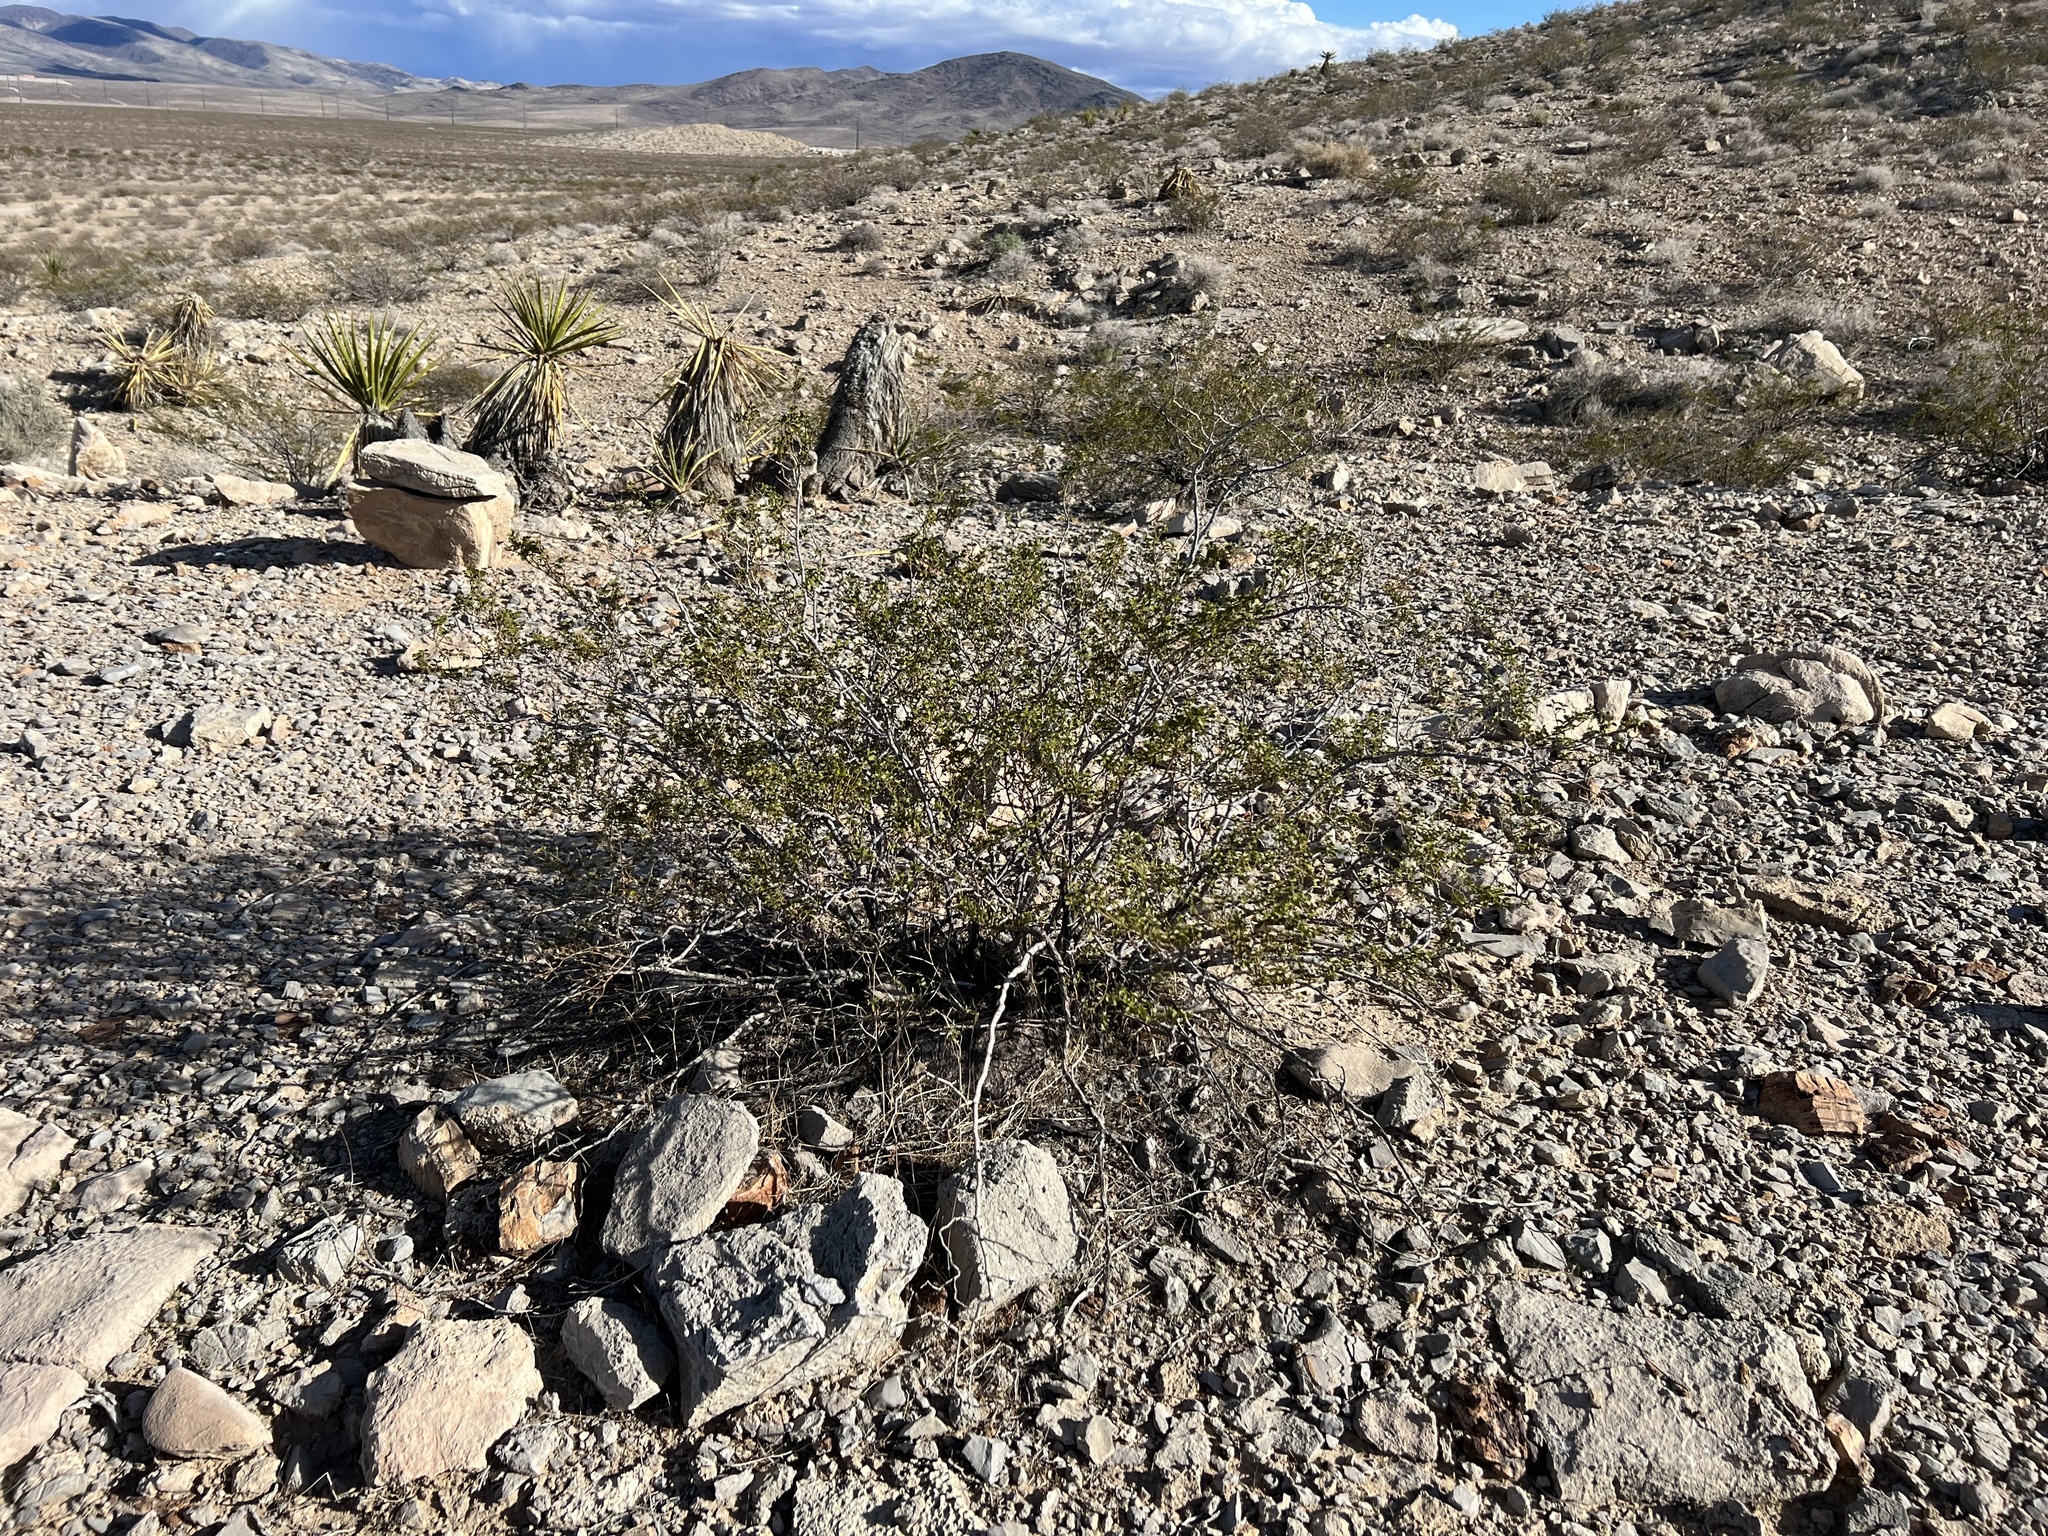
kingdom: Plantae
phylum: Tracheophyta
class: Magnoliopsida
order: Zygophyllales
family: Zygophyllaceae
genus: Larrea
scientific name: Larrea tridentata
